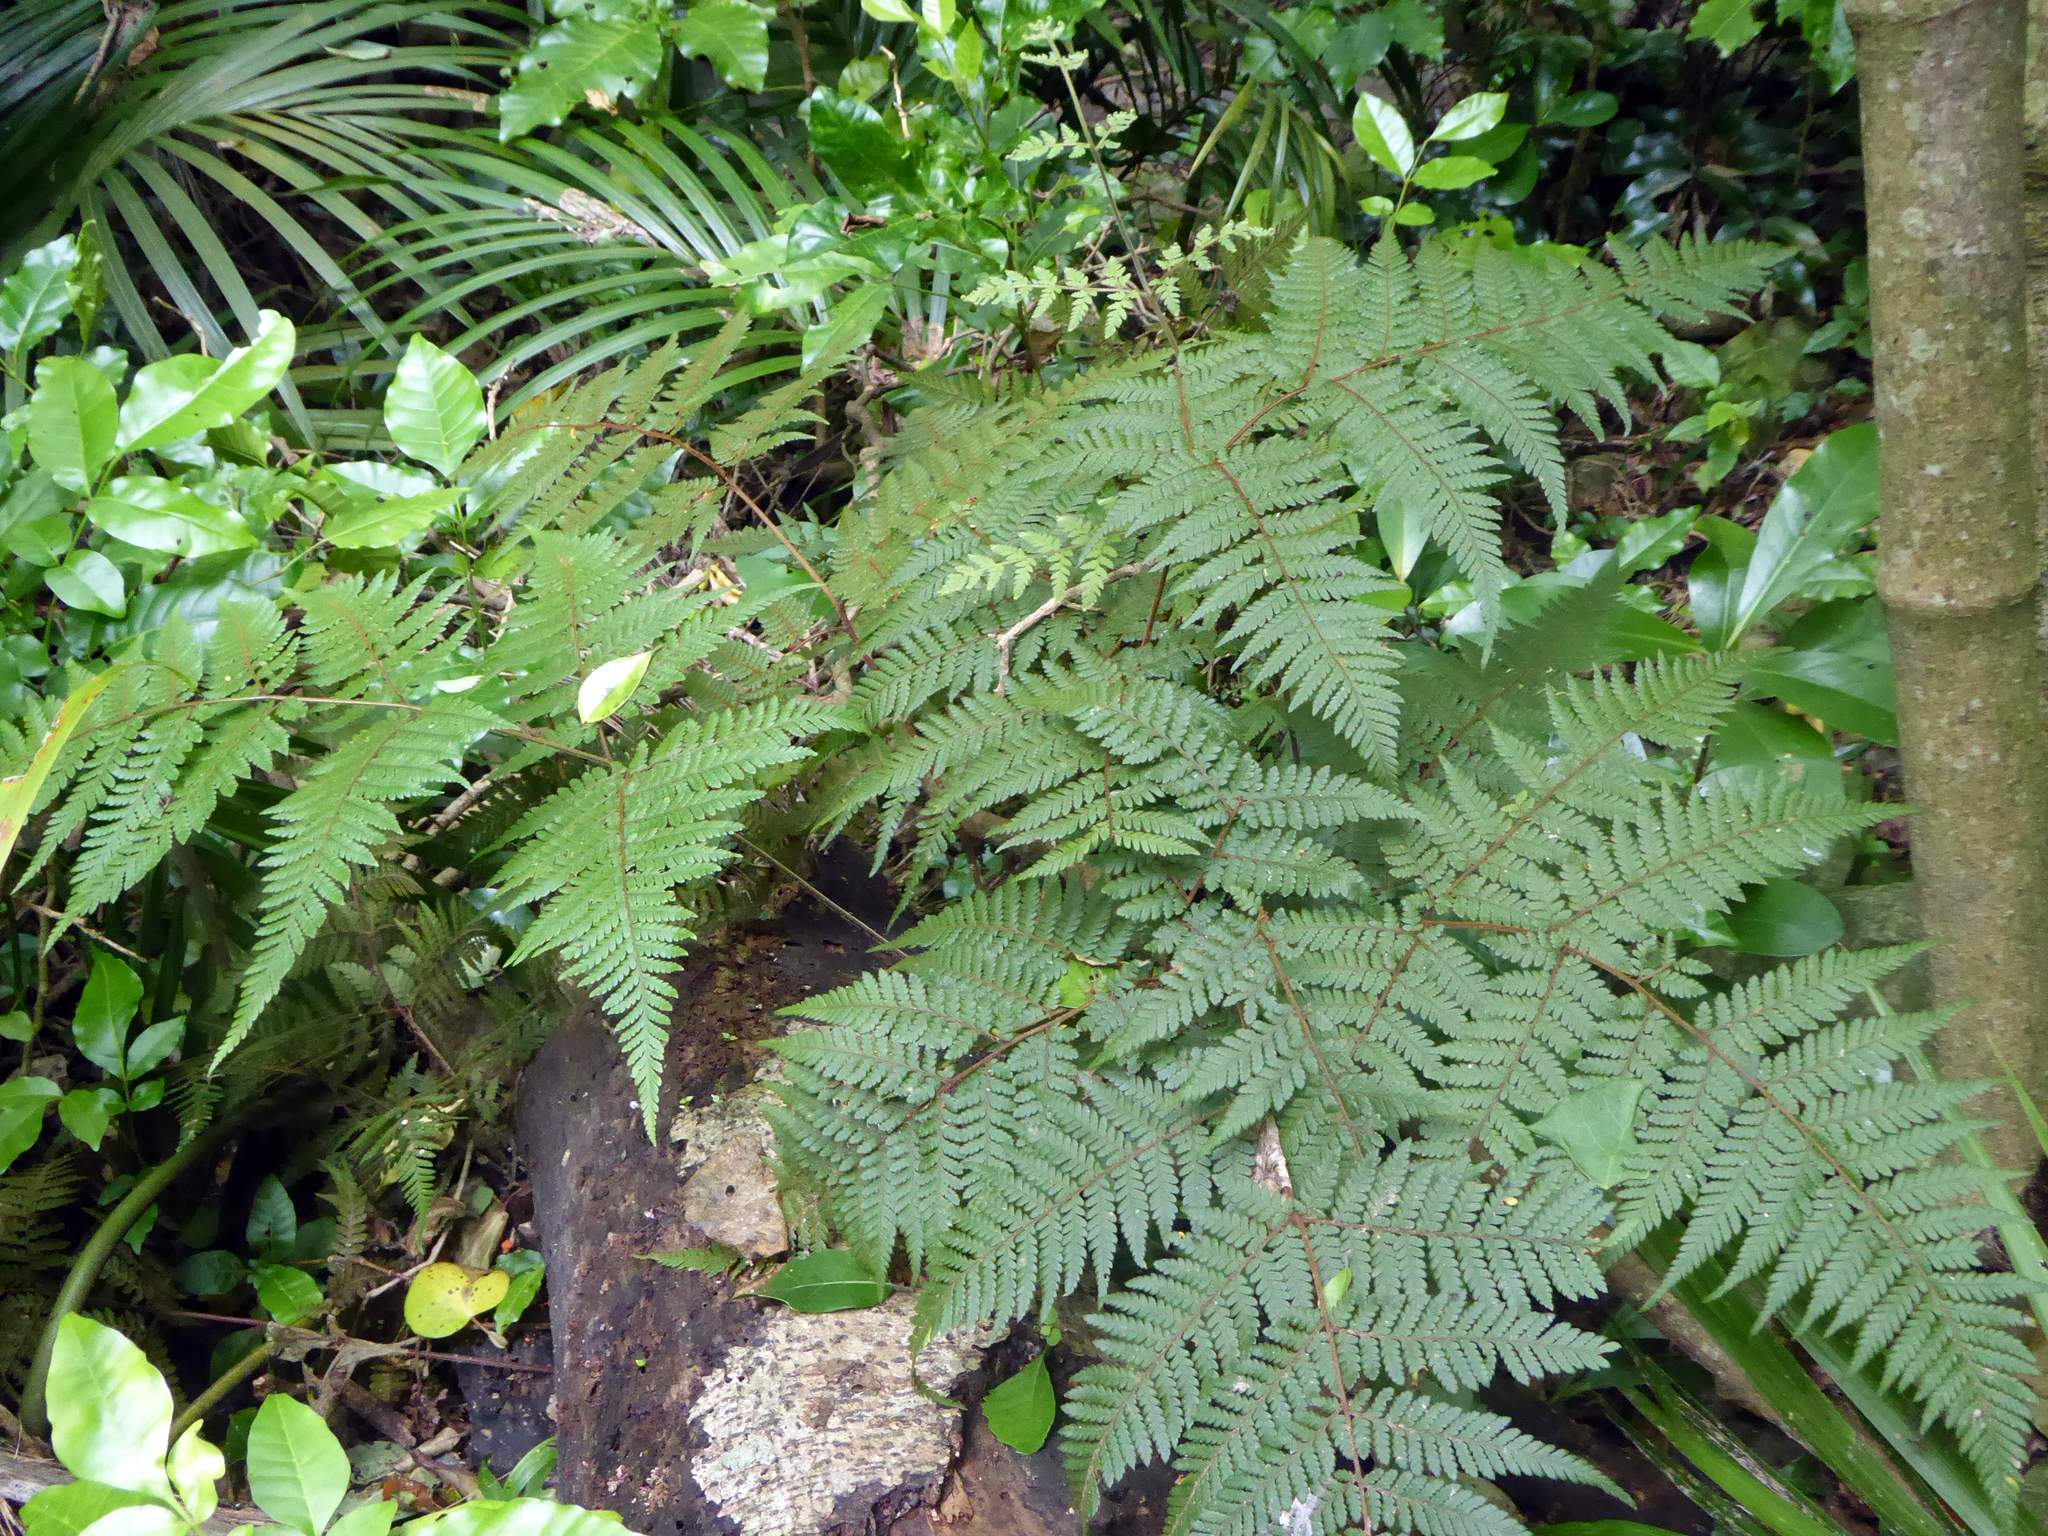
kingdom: Plantae
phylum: Tracheophyta
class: Polypodiopsida
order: Polypodiales
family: Dryopteridaceae
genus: Lastreopsis
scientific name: Lastreopsis velutina
